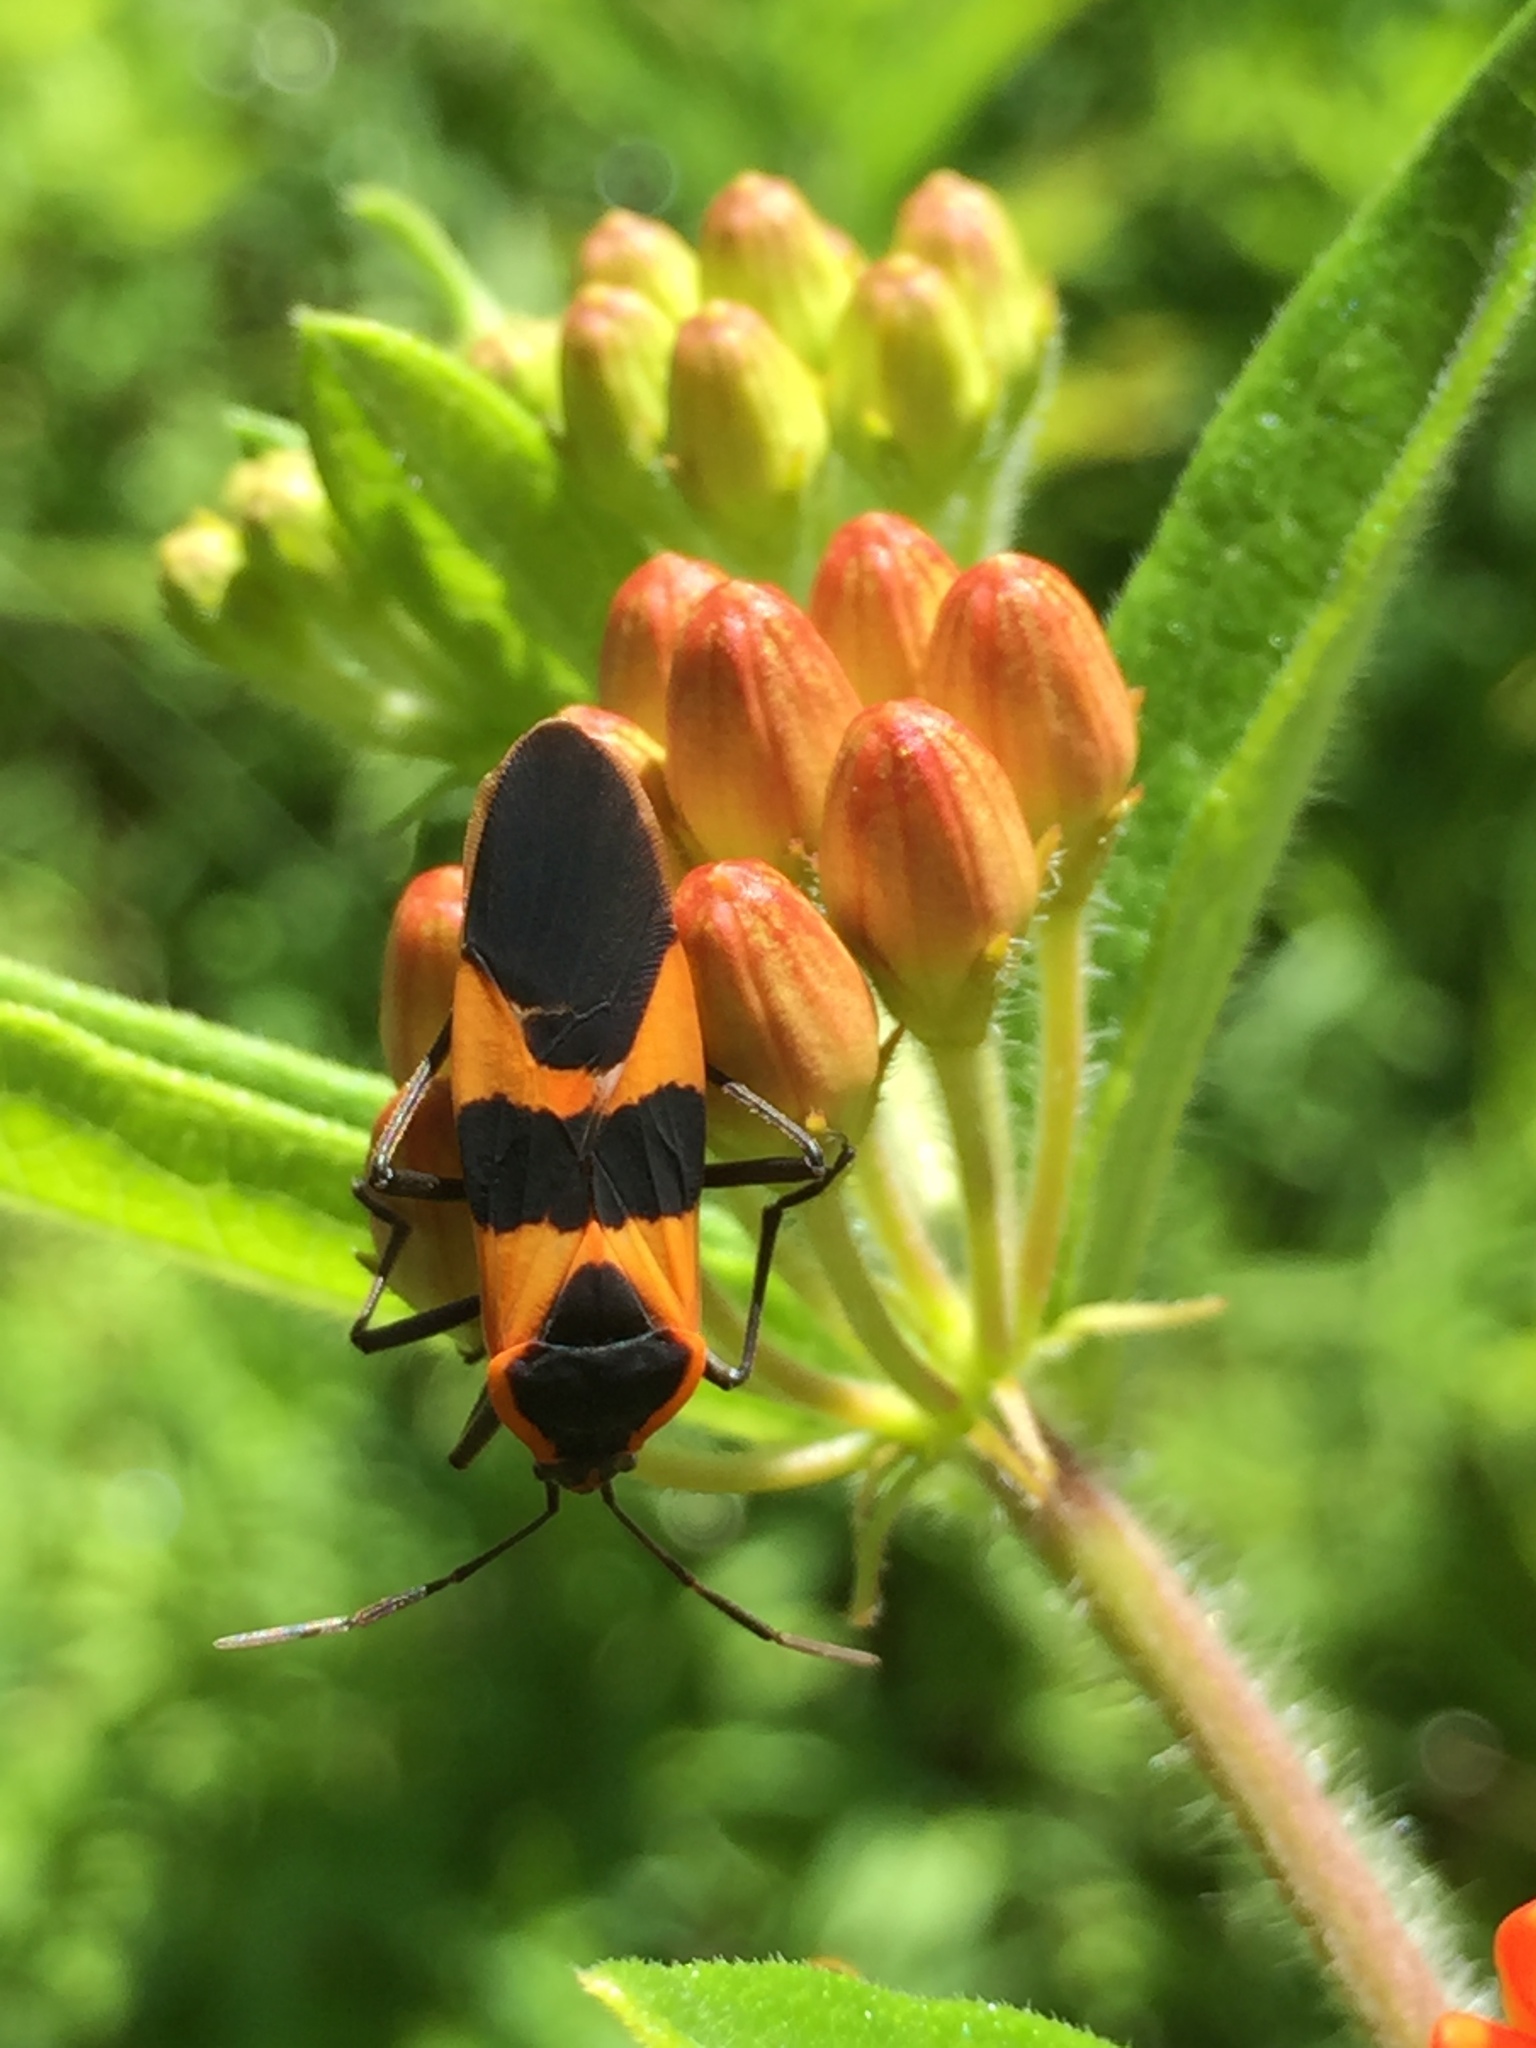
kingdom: Animalia
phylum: Arthropoda
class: Insecta
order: Hemiptera
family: Lygaeidae
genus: Oncopeltus
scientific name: Oncopeltus fasciatus
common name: Large milkweed bug
